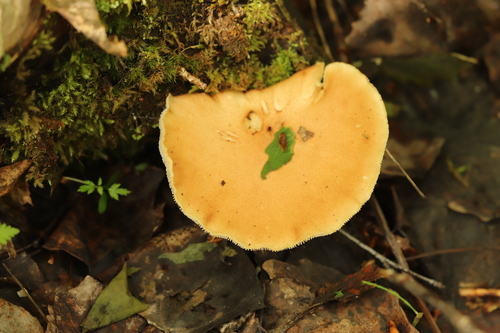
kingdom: Fungi
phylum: Basidiomycota
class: Agaricomycetes
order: Gloeophyllales
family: Gloeophyllaceae
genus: Neolentinus
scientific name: Neolentinus cyathiformis
